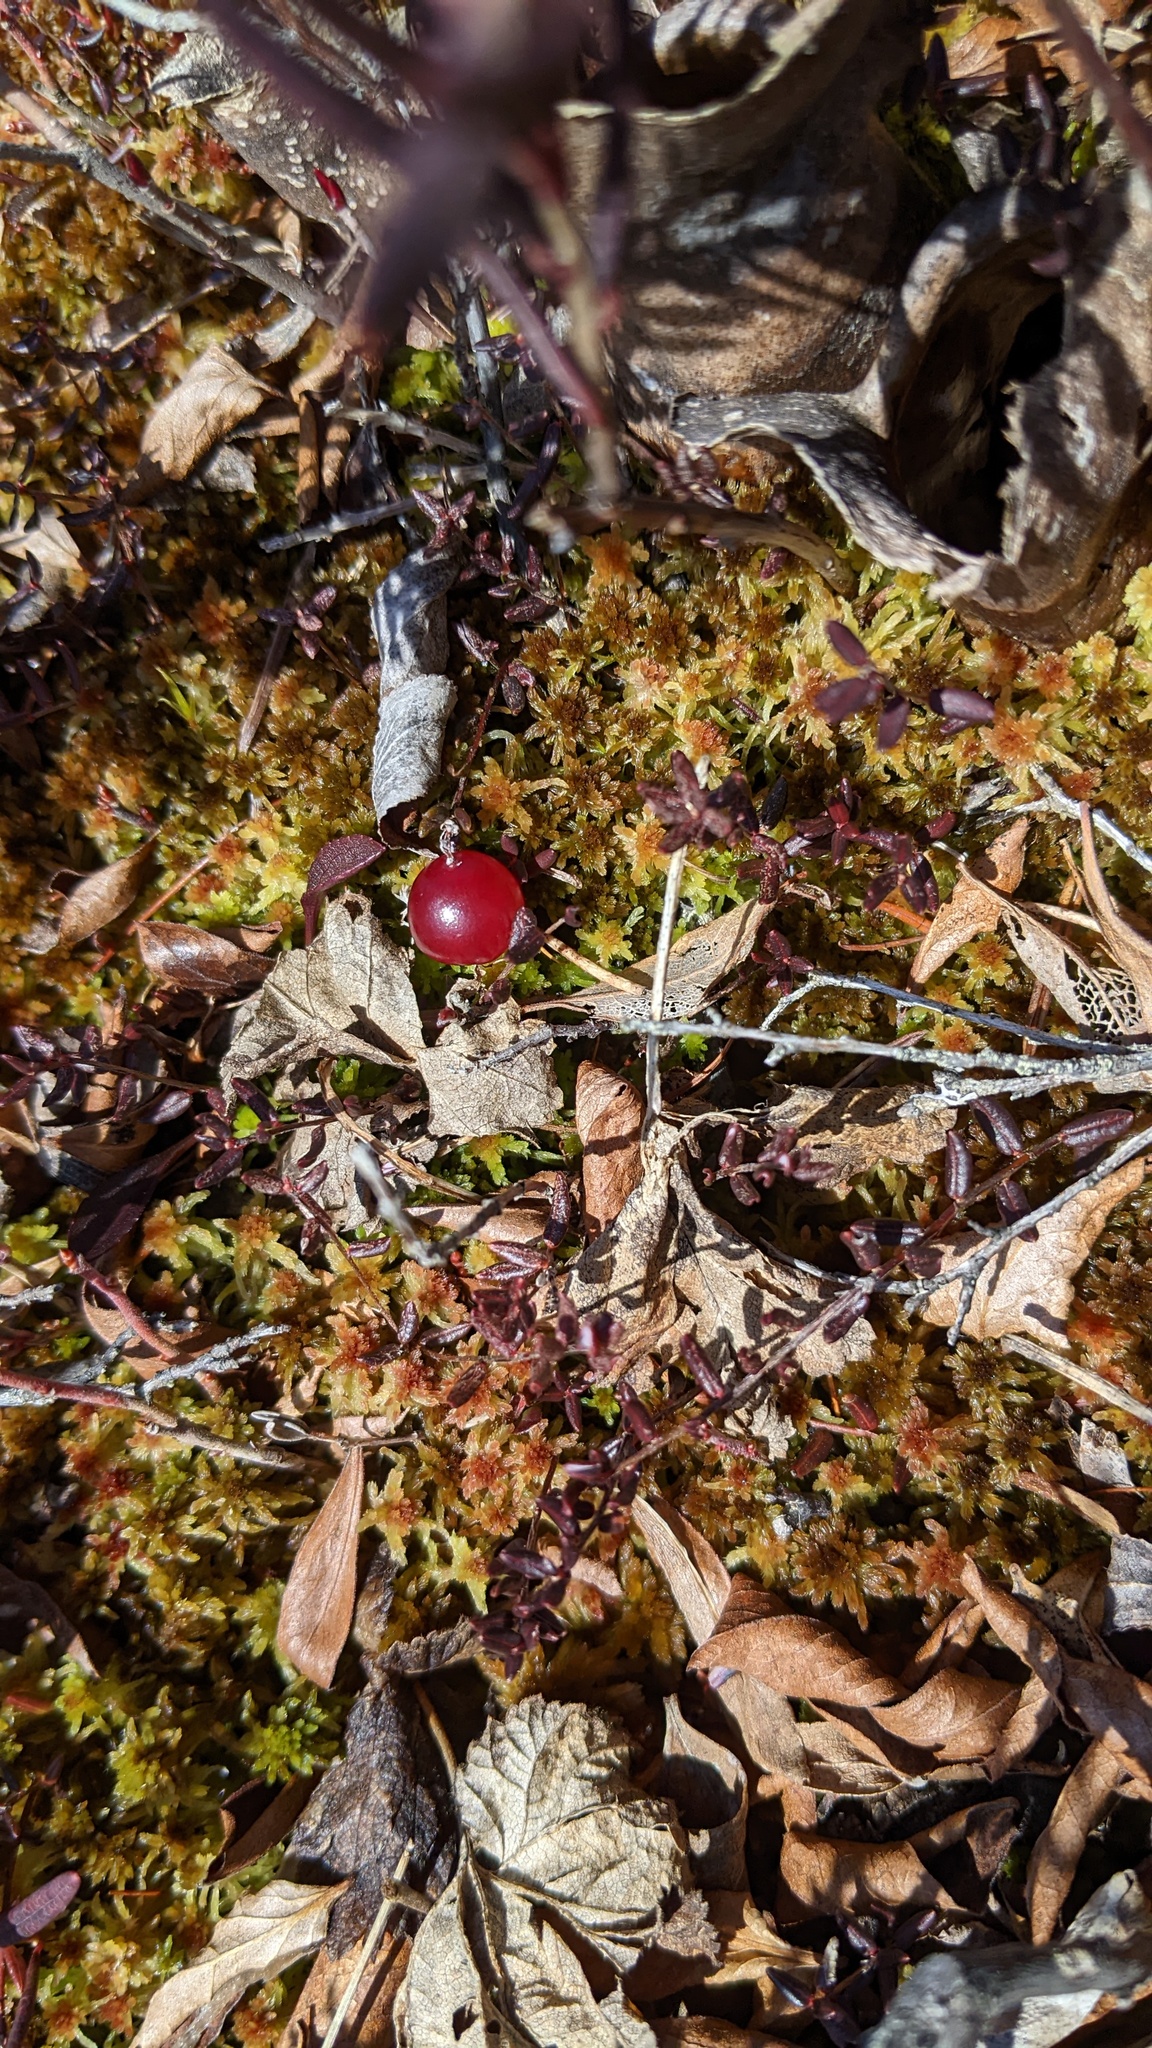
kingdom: Plantae
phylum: Tracheophyta
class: Magnoliopsida
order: Ericales
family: Ericaceae
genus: Vaccinium
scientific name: Vaccinium oxycoccos
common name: Cranberry
